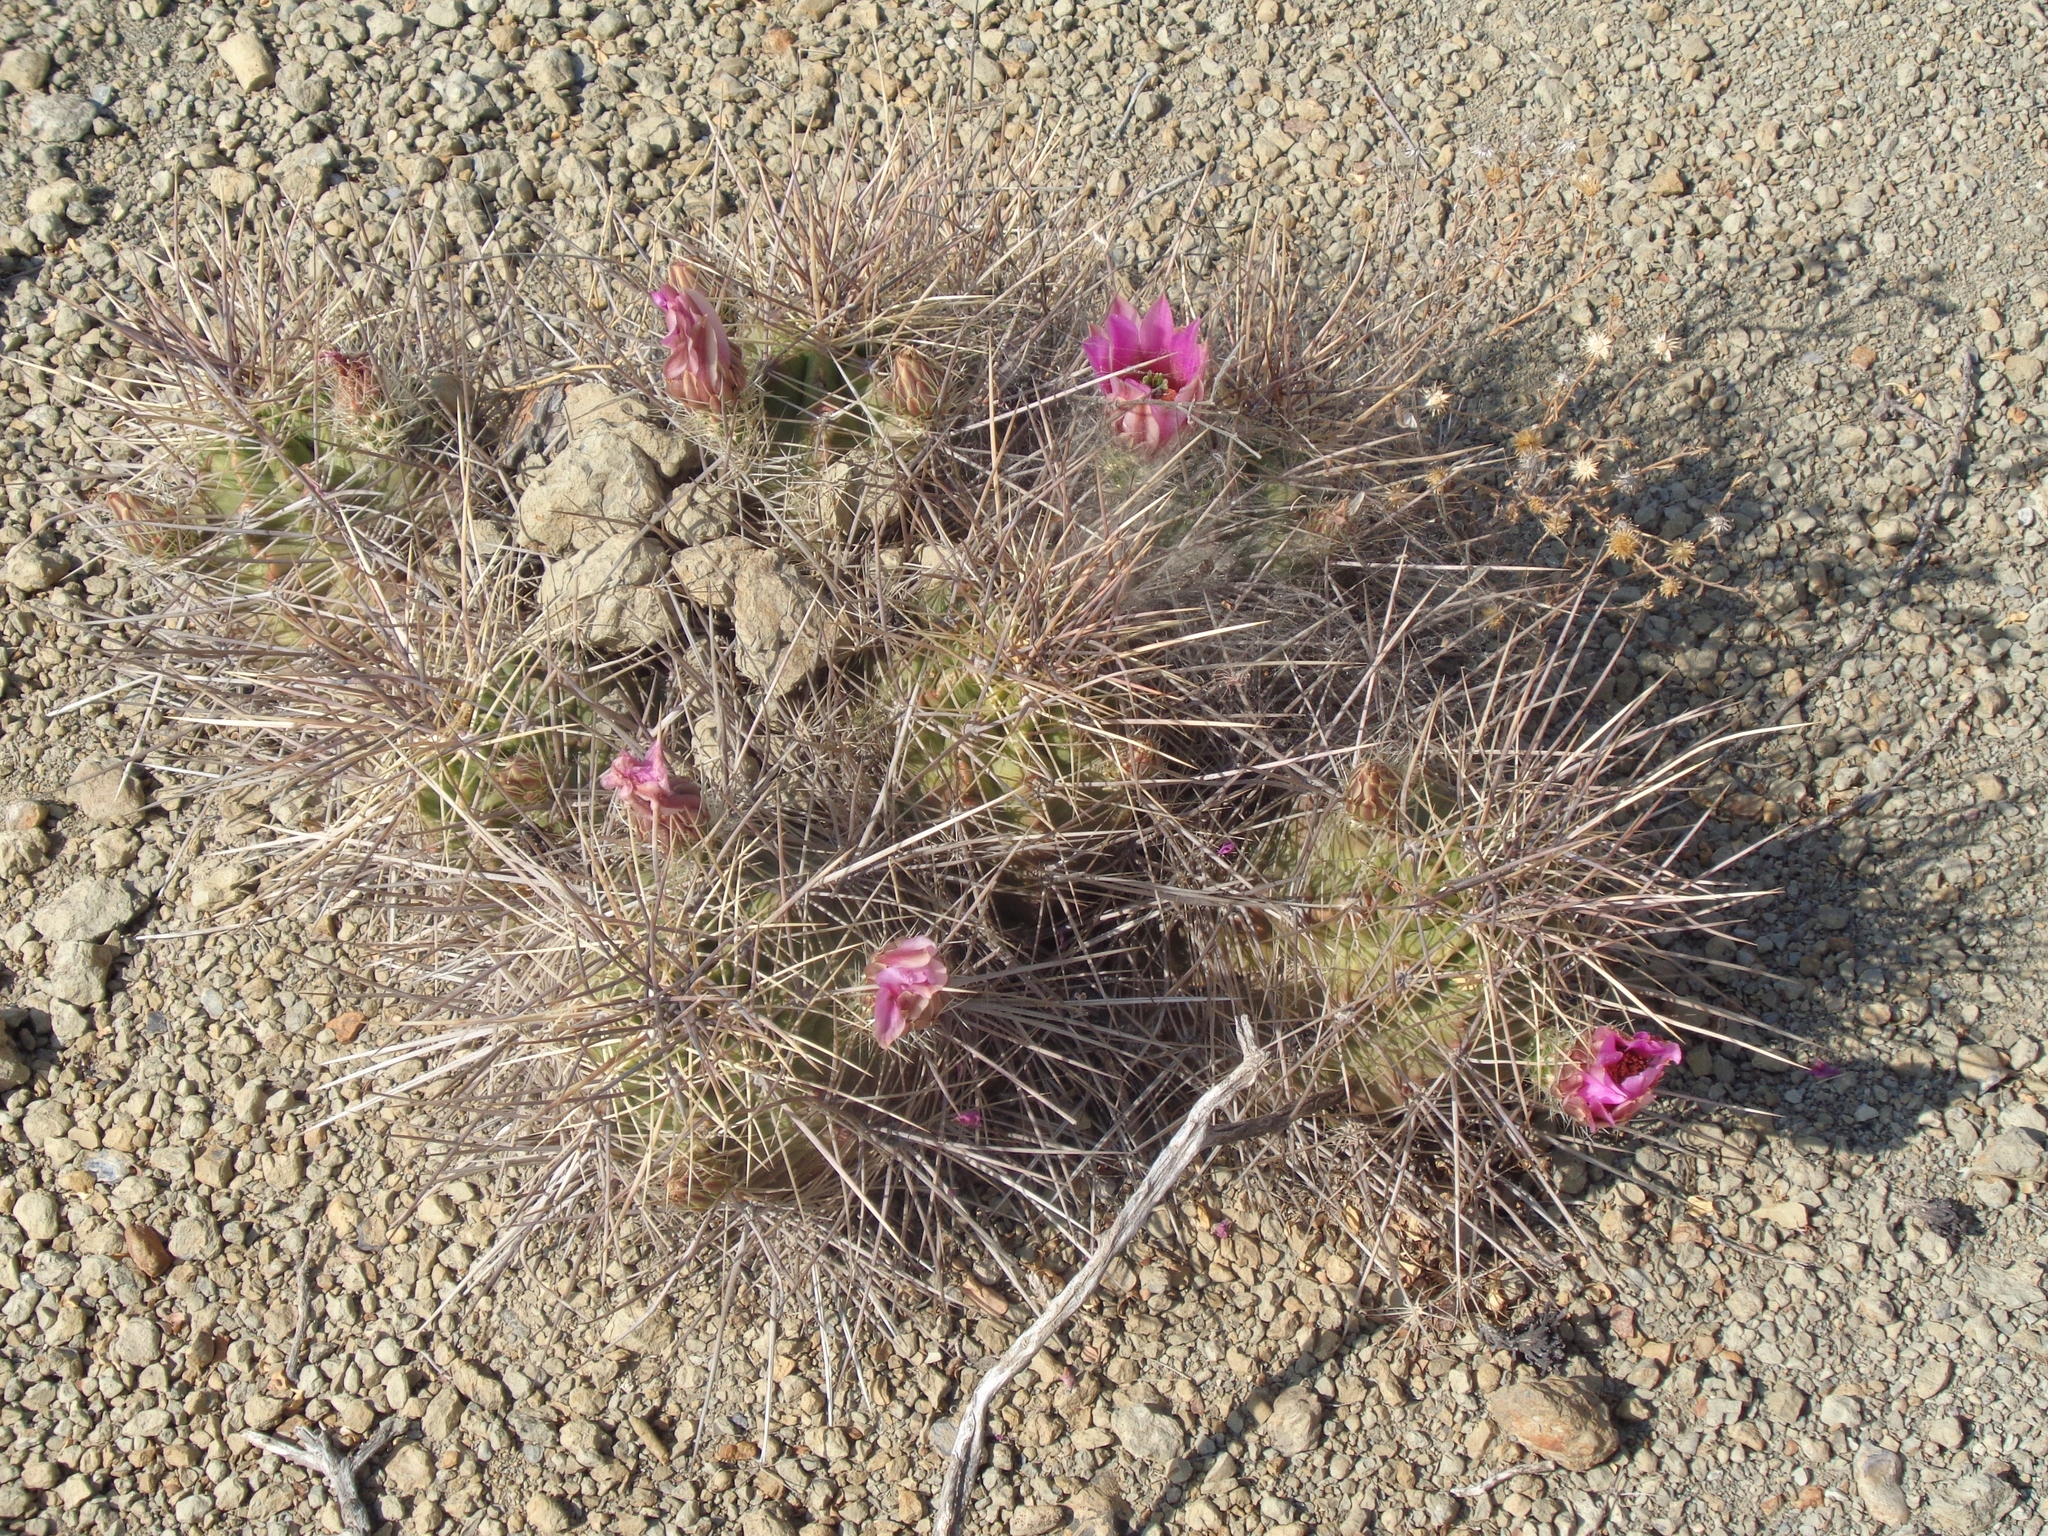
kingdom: Plantae
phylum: Tracheophyta
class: Magnoliopsida
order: Caryophyllales
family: Cactaceae
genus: Echinocereus
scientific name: Echinocereus enneacanthus
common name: Pitaya
